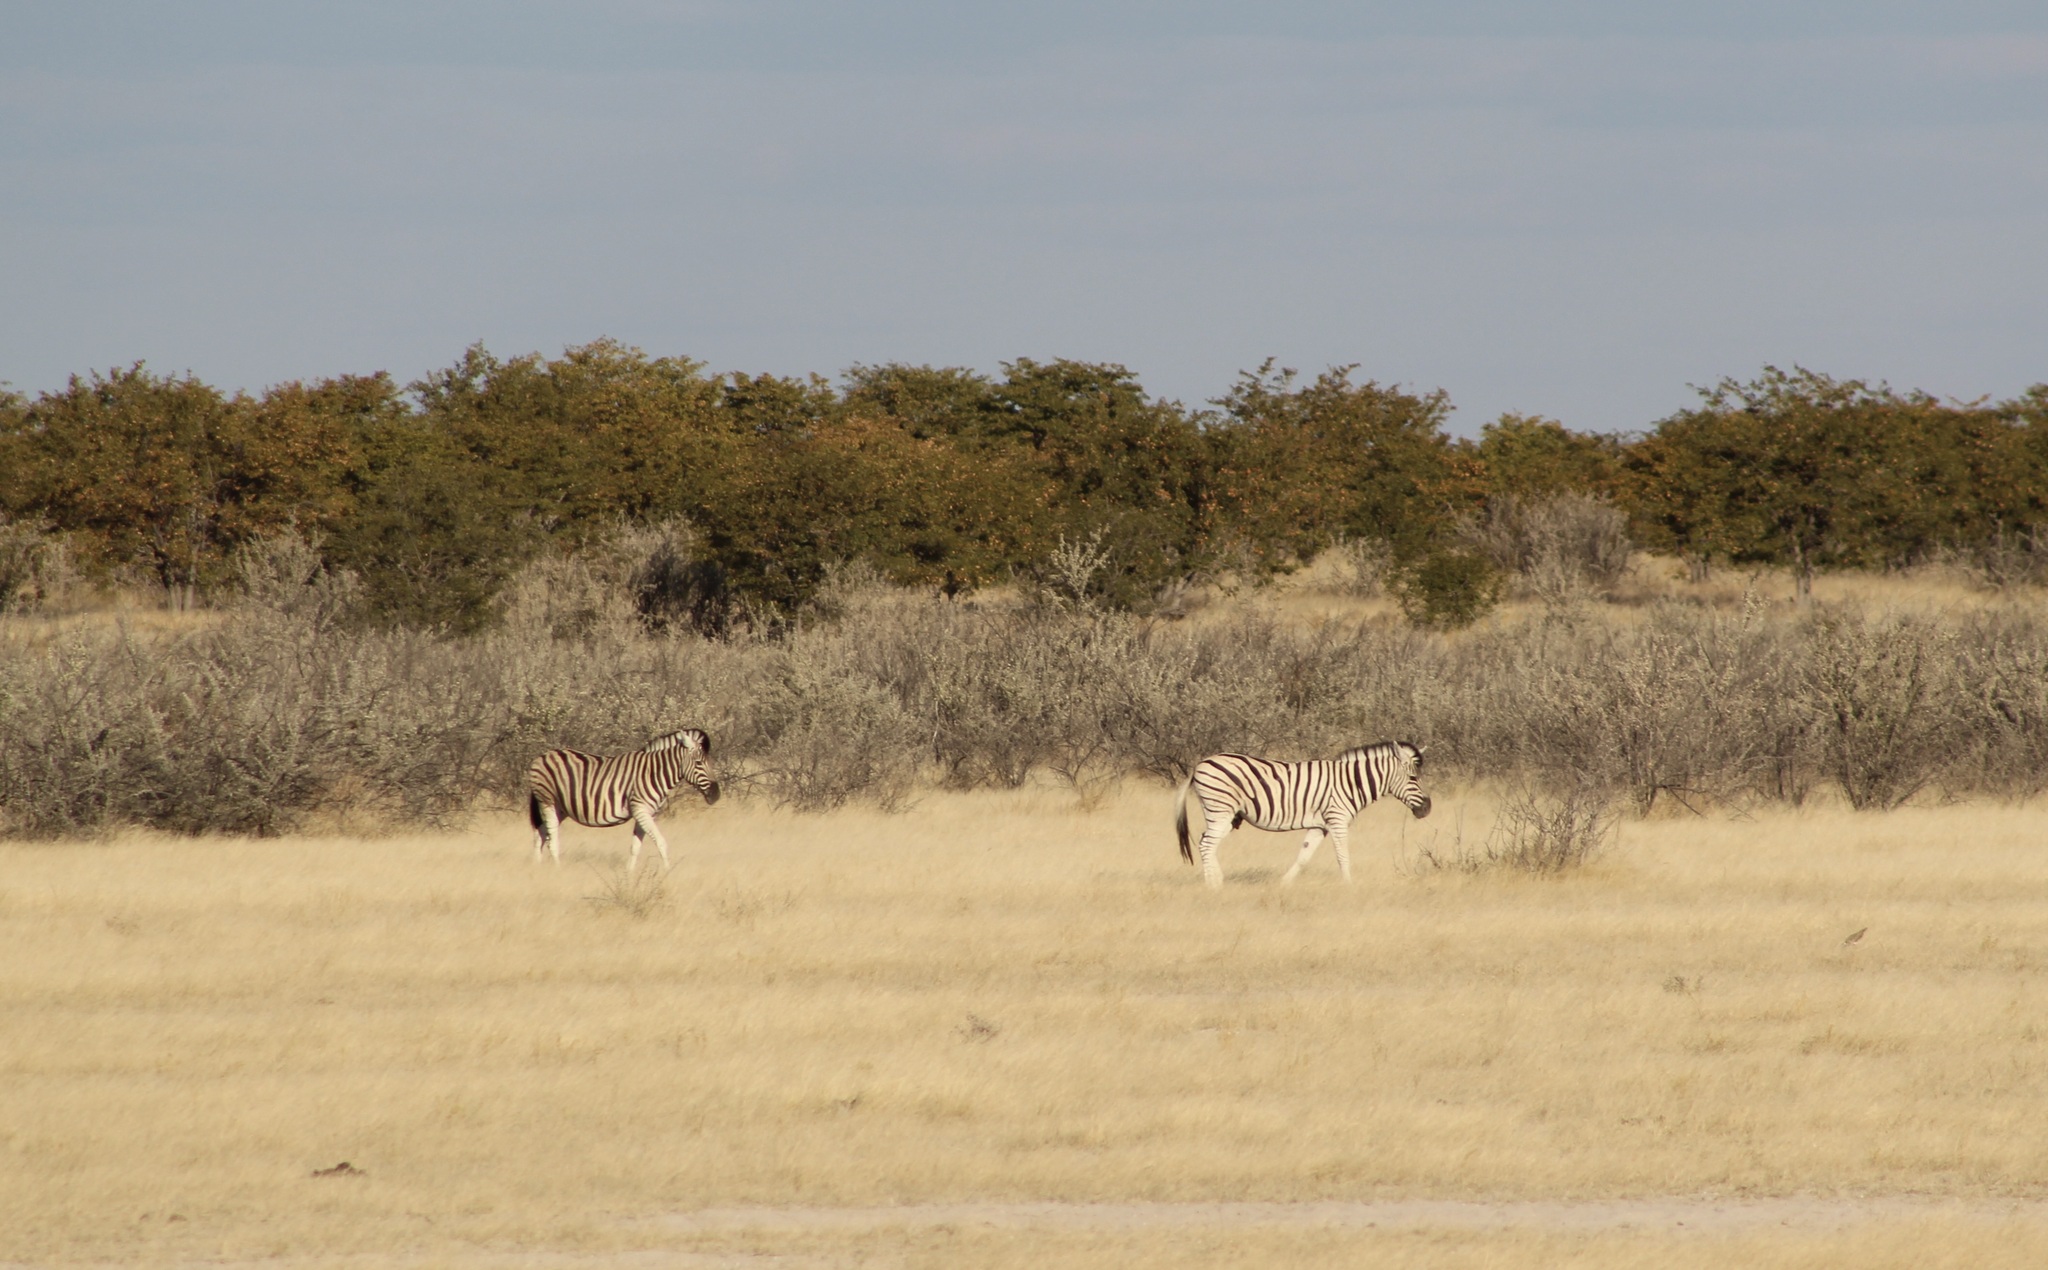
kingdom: Animalia
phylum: Chordata
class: Mammalia
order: Perissodactyla
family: Equidae
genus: Equus
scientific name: Equus quagga
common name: Plains zebra
